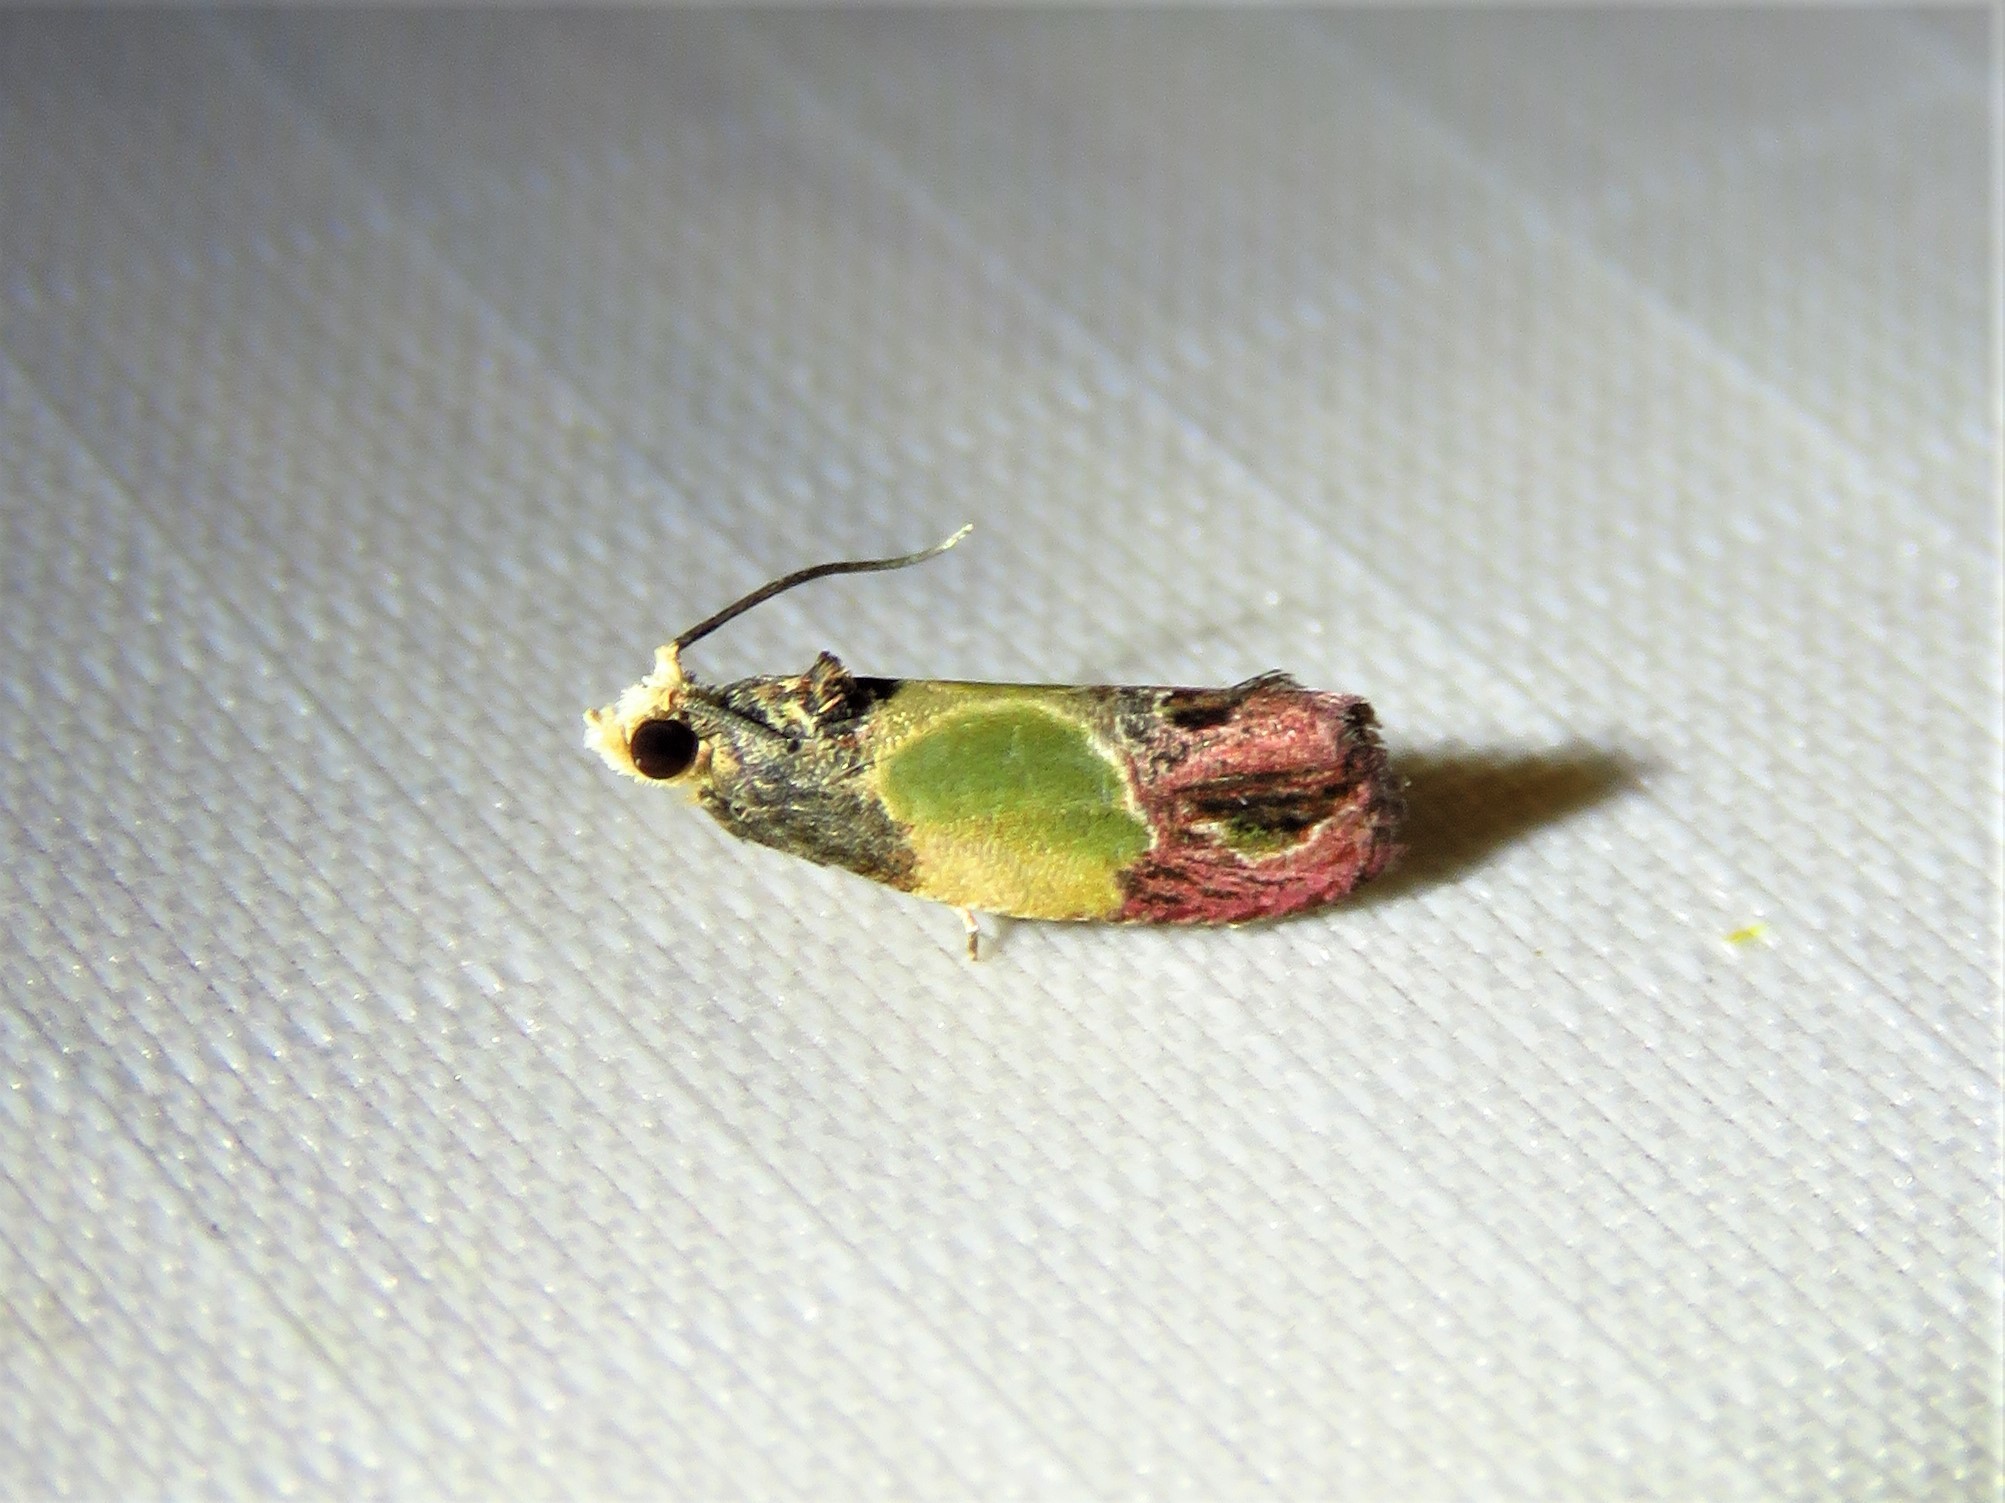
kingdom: Animalia
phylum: Arthropoda
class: Insecta
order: Lepidoptera
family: Tortricidae
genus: Eumarozia
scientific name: Eumarozia malachitana
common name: Sculptured moth
